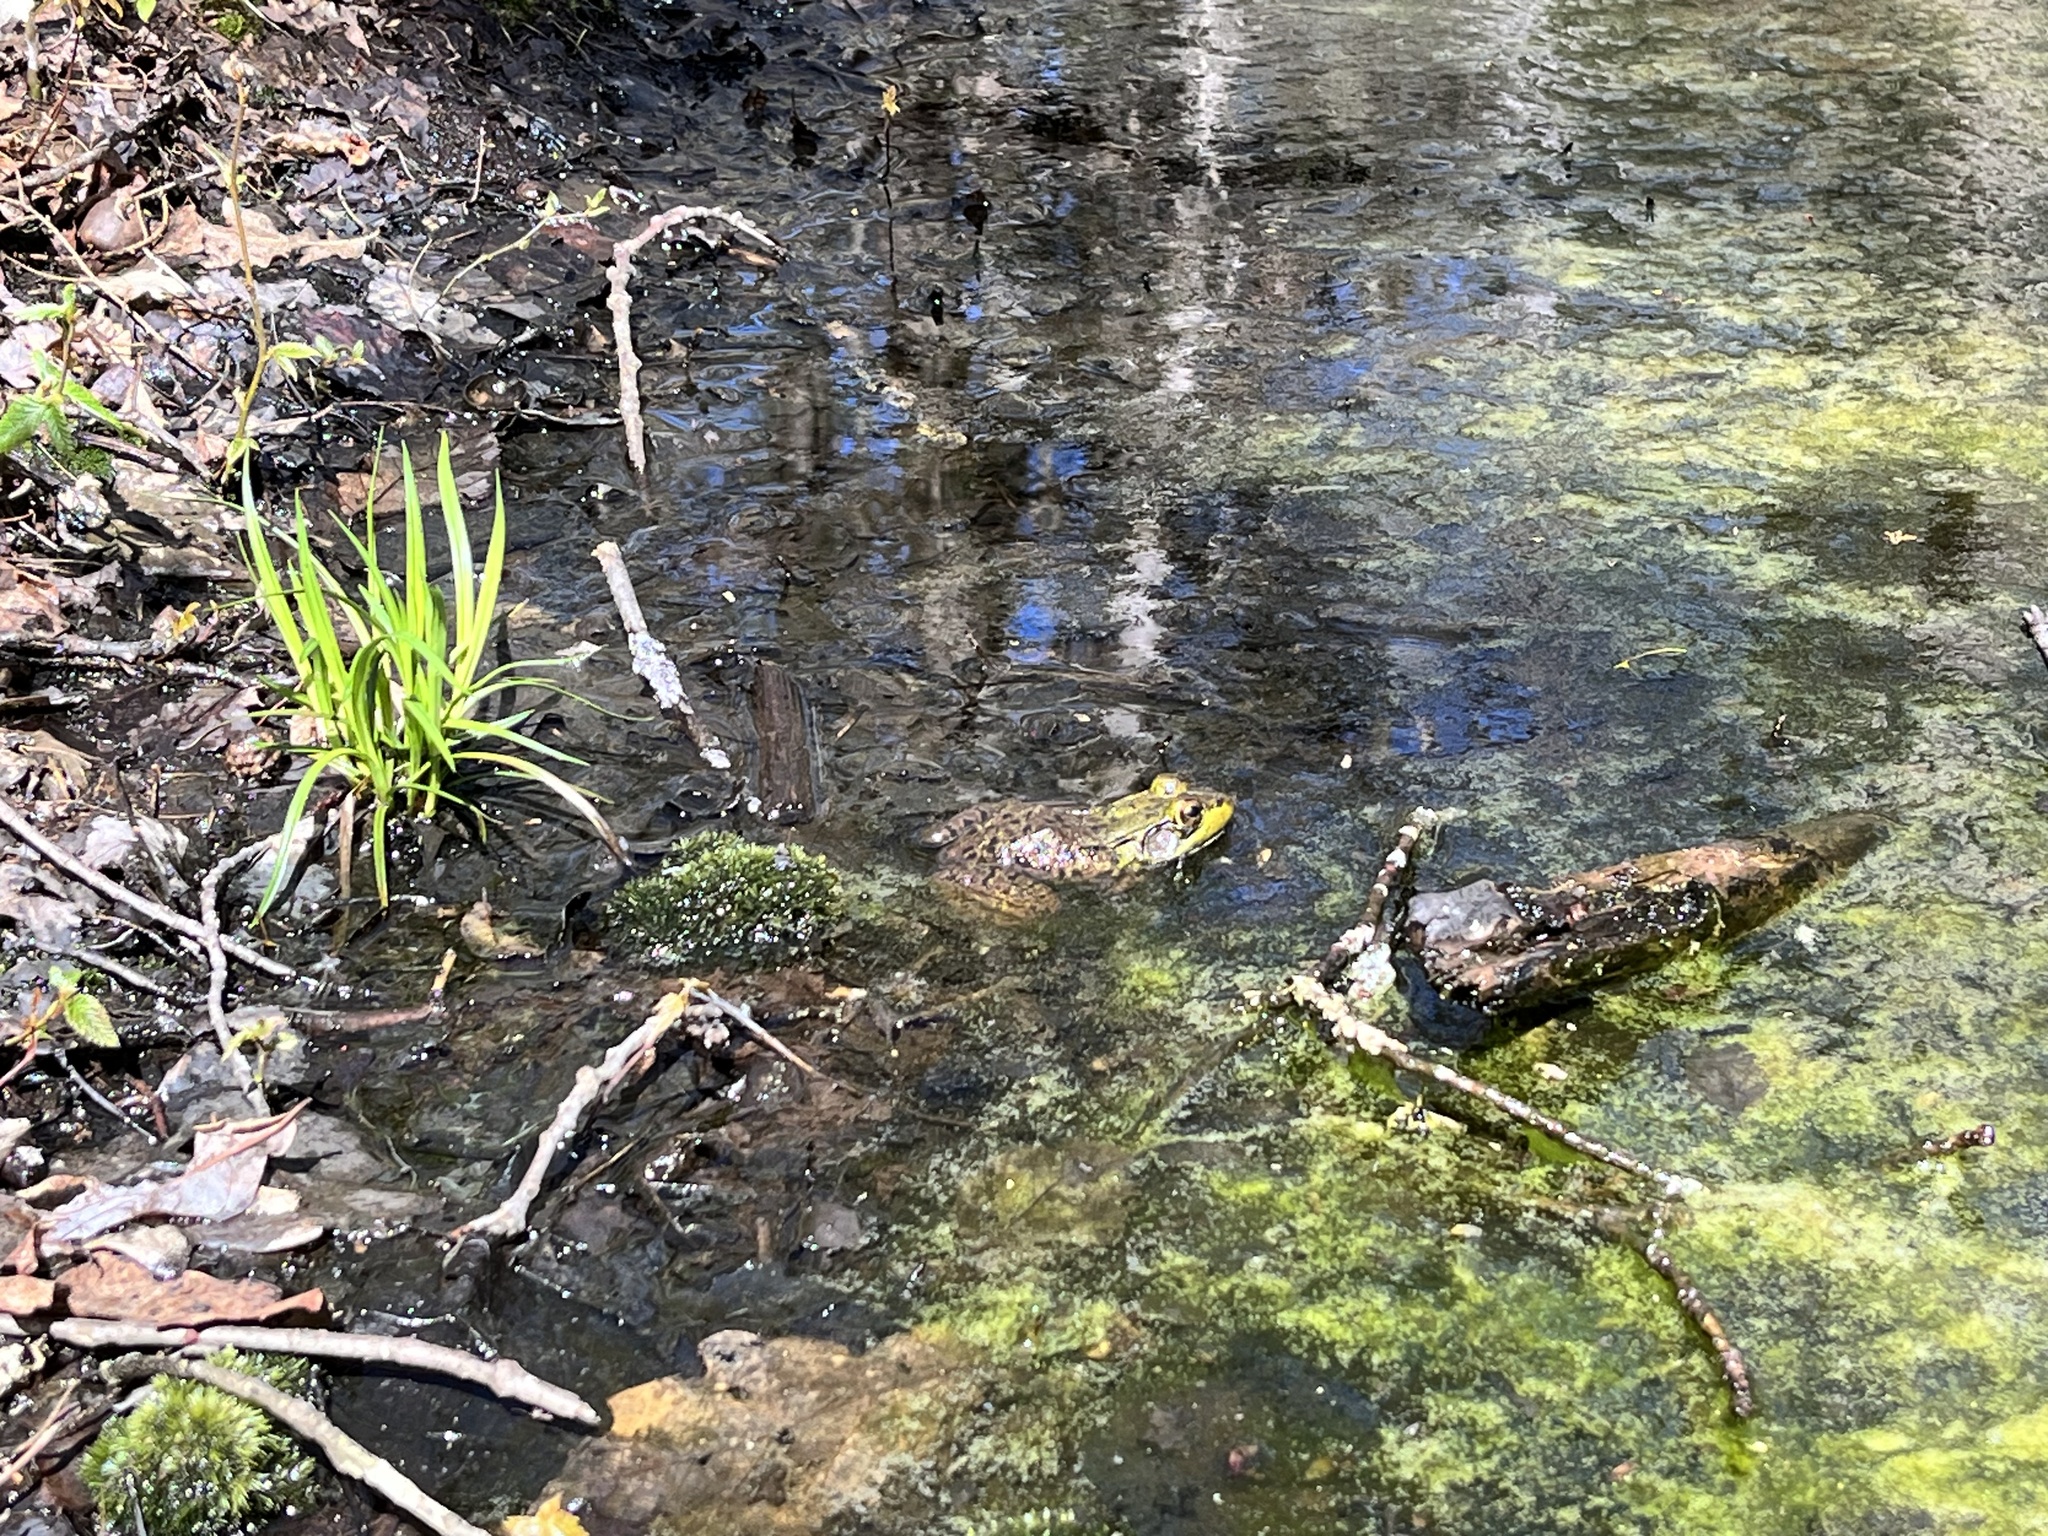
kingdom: Animalia
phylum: Chordata
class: Amphibia
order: Anura
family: Ranidae
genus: Lithobates
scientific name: Lithobates clamitans
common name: Green frog
